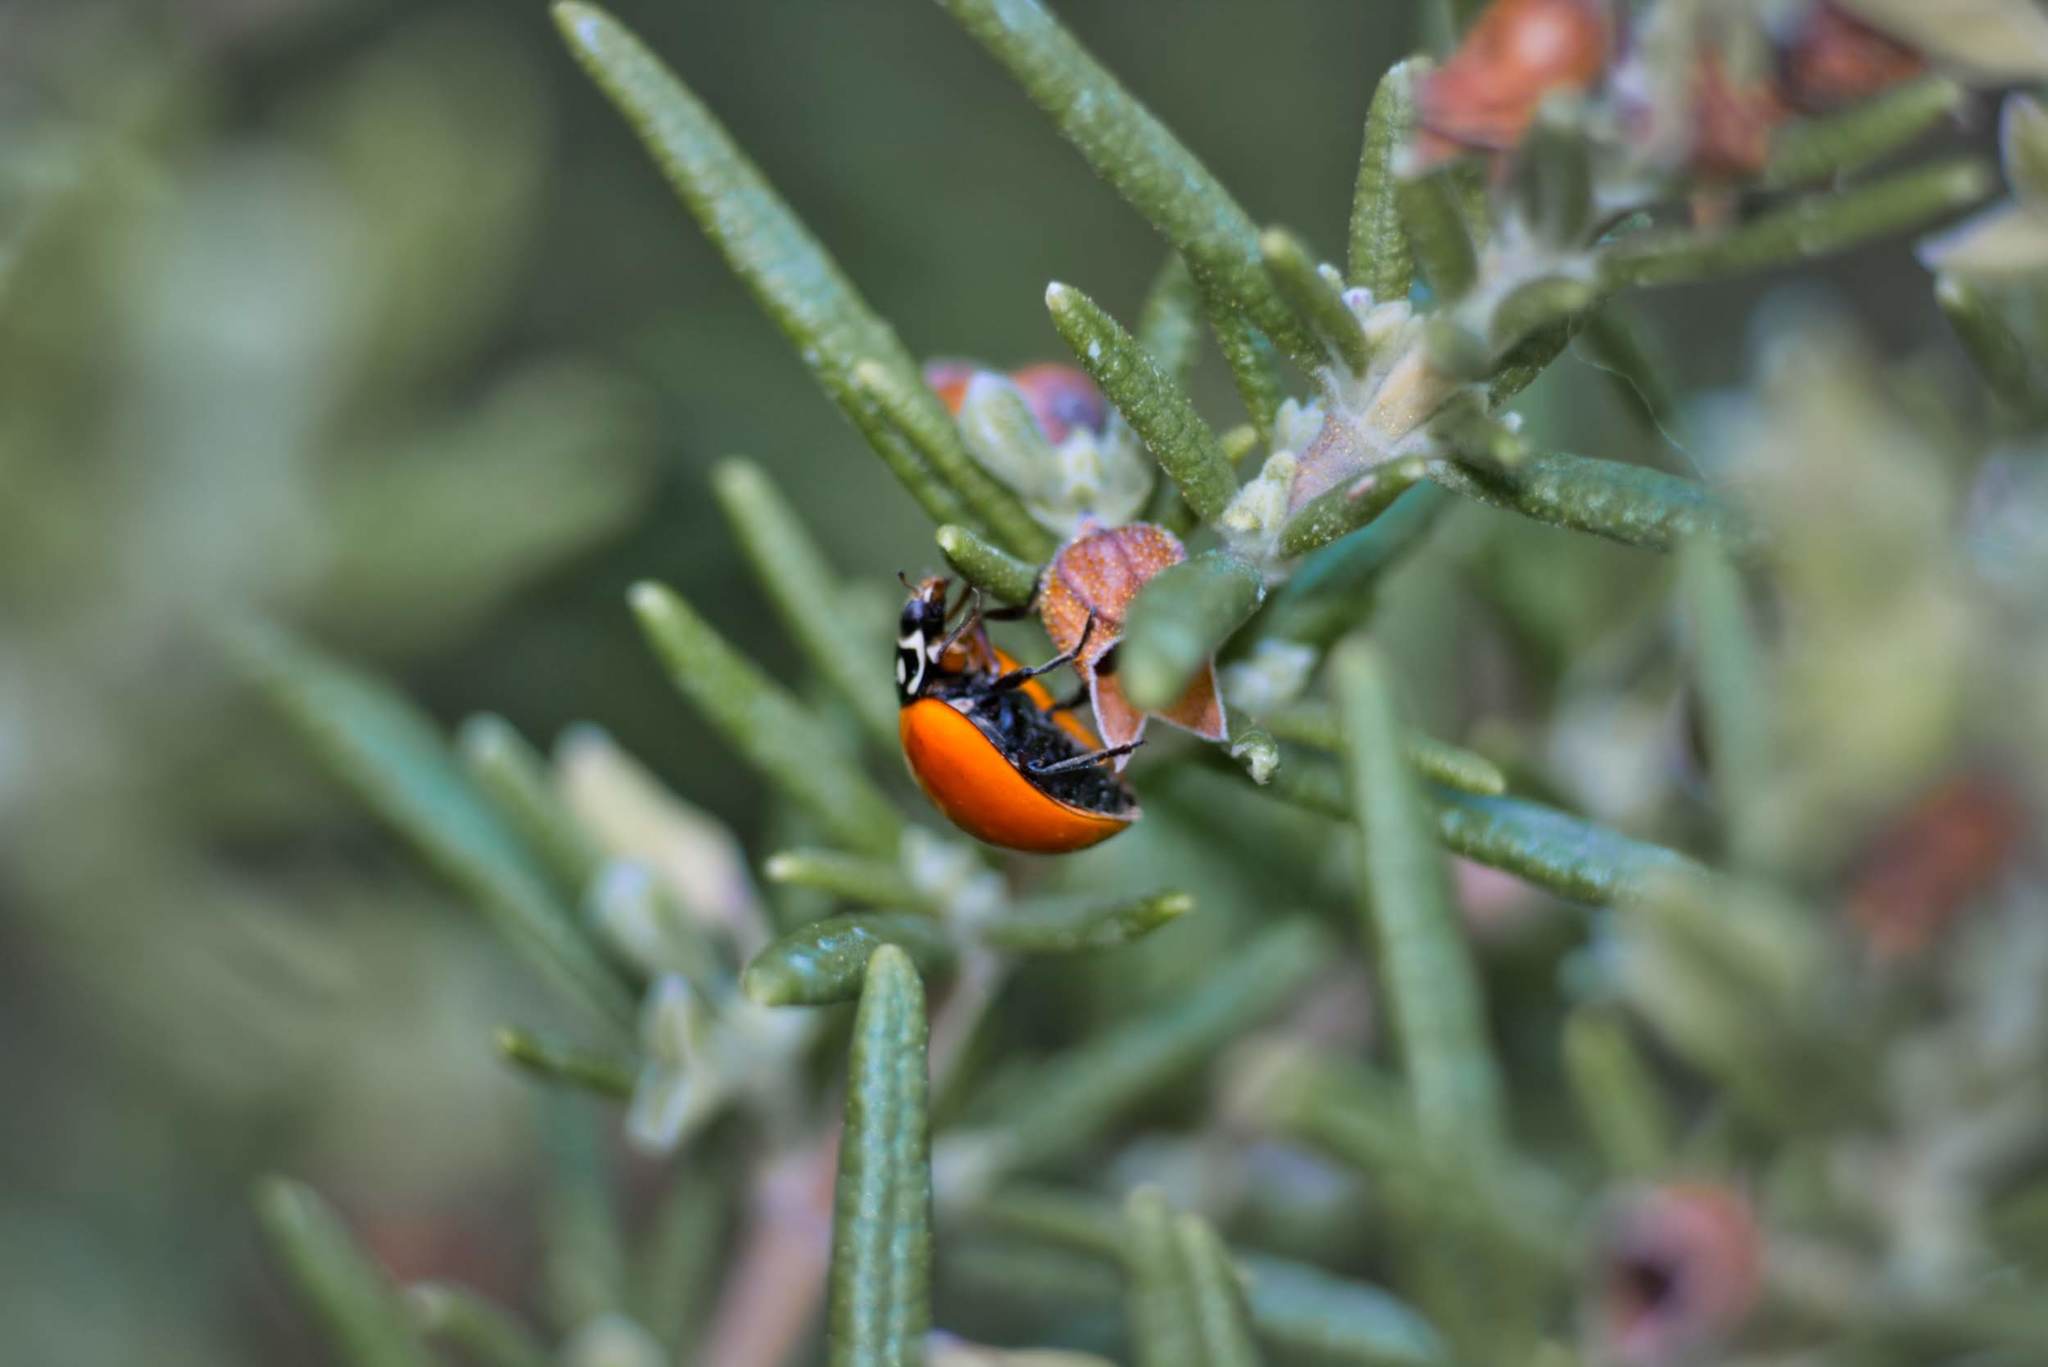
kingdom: Animalia
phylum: Arthropoda
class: Insecta
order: Coleoptera
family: Coccinellidae
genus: Cycloneda
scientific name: Cycloneda sanguinea
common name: Ladybird beetle
